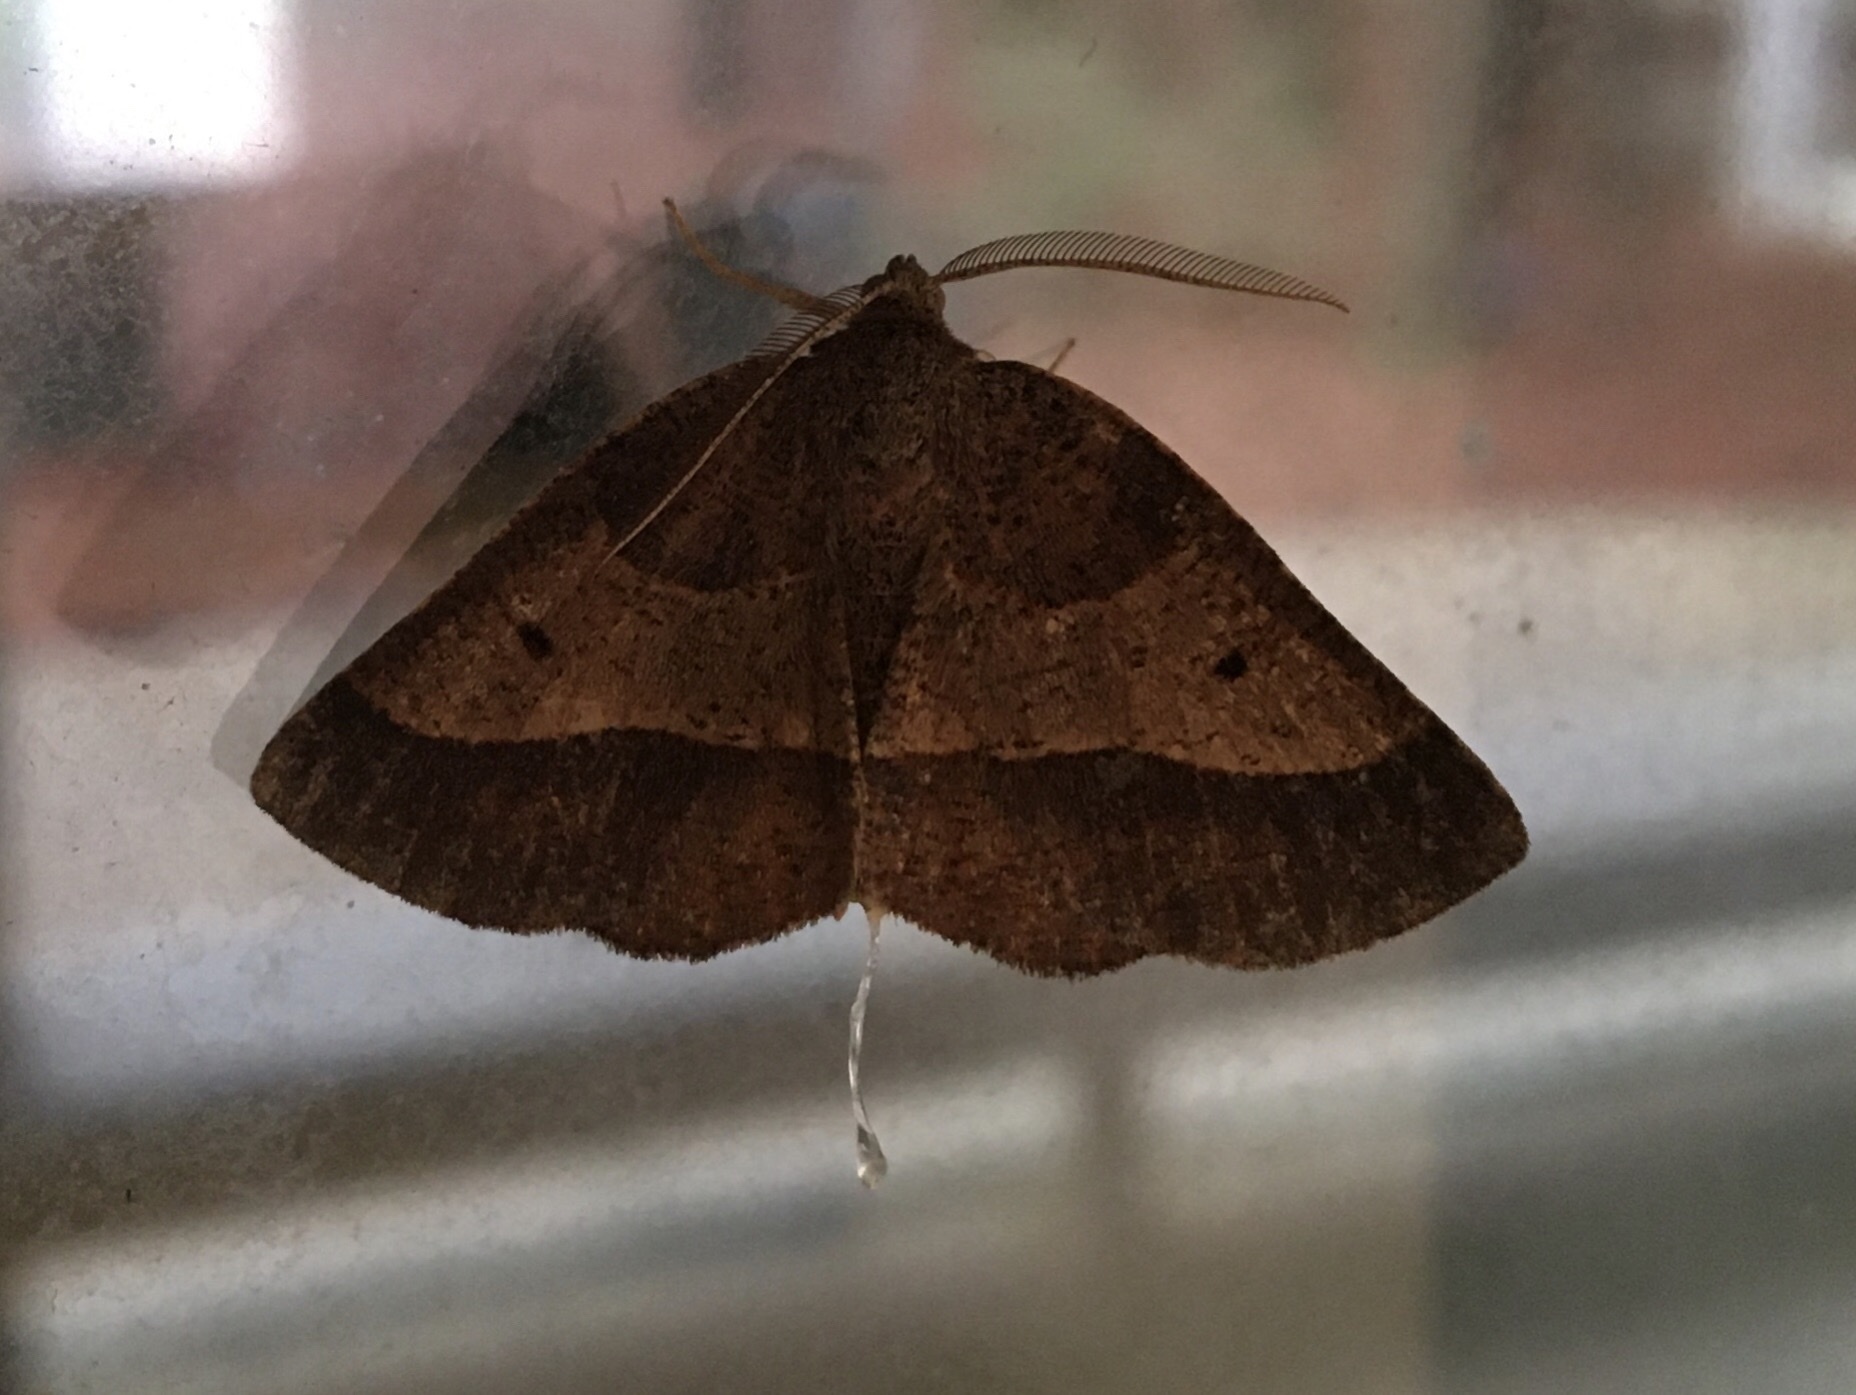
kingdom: Animalia
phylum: Arthropoda
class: Insecta
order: Lepidoptera
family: Geometridae
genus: Metarranthis
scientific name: Metarranthis obfirmaria
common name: Yellow-washed metarranthis
